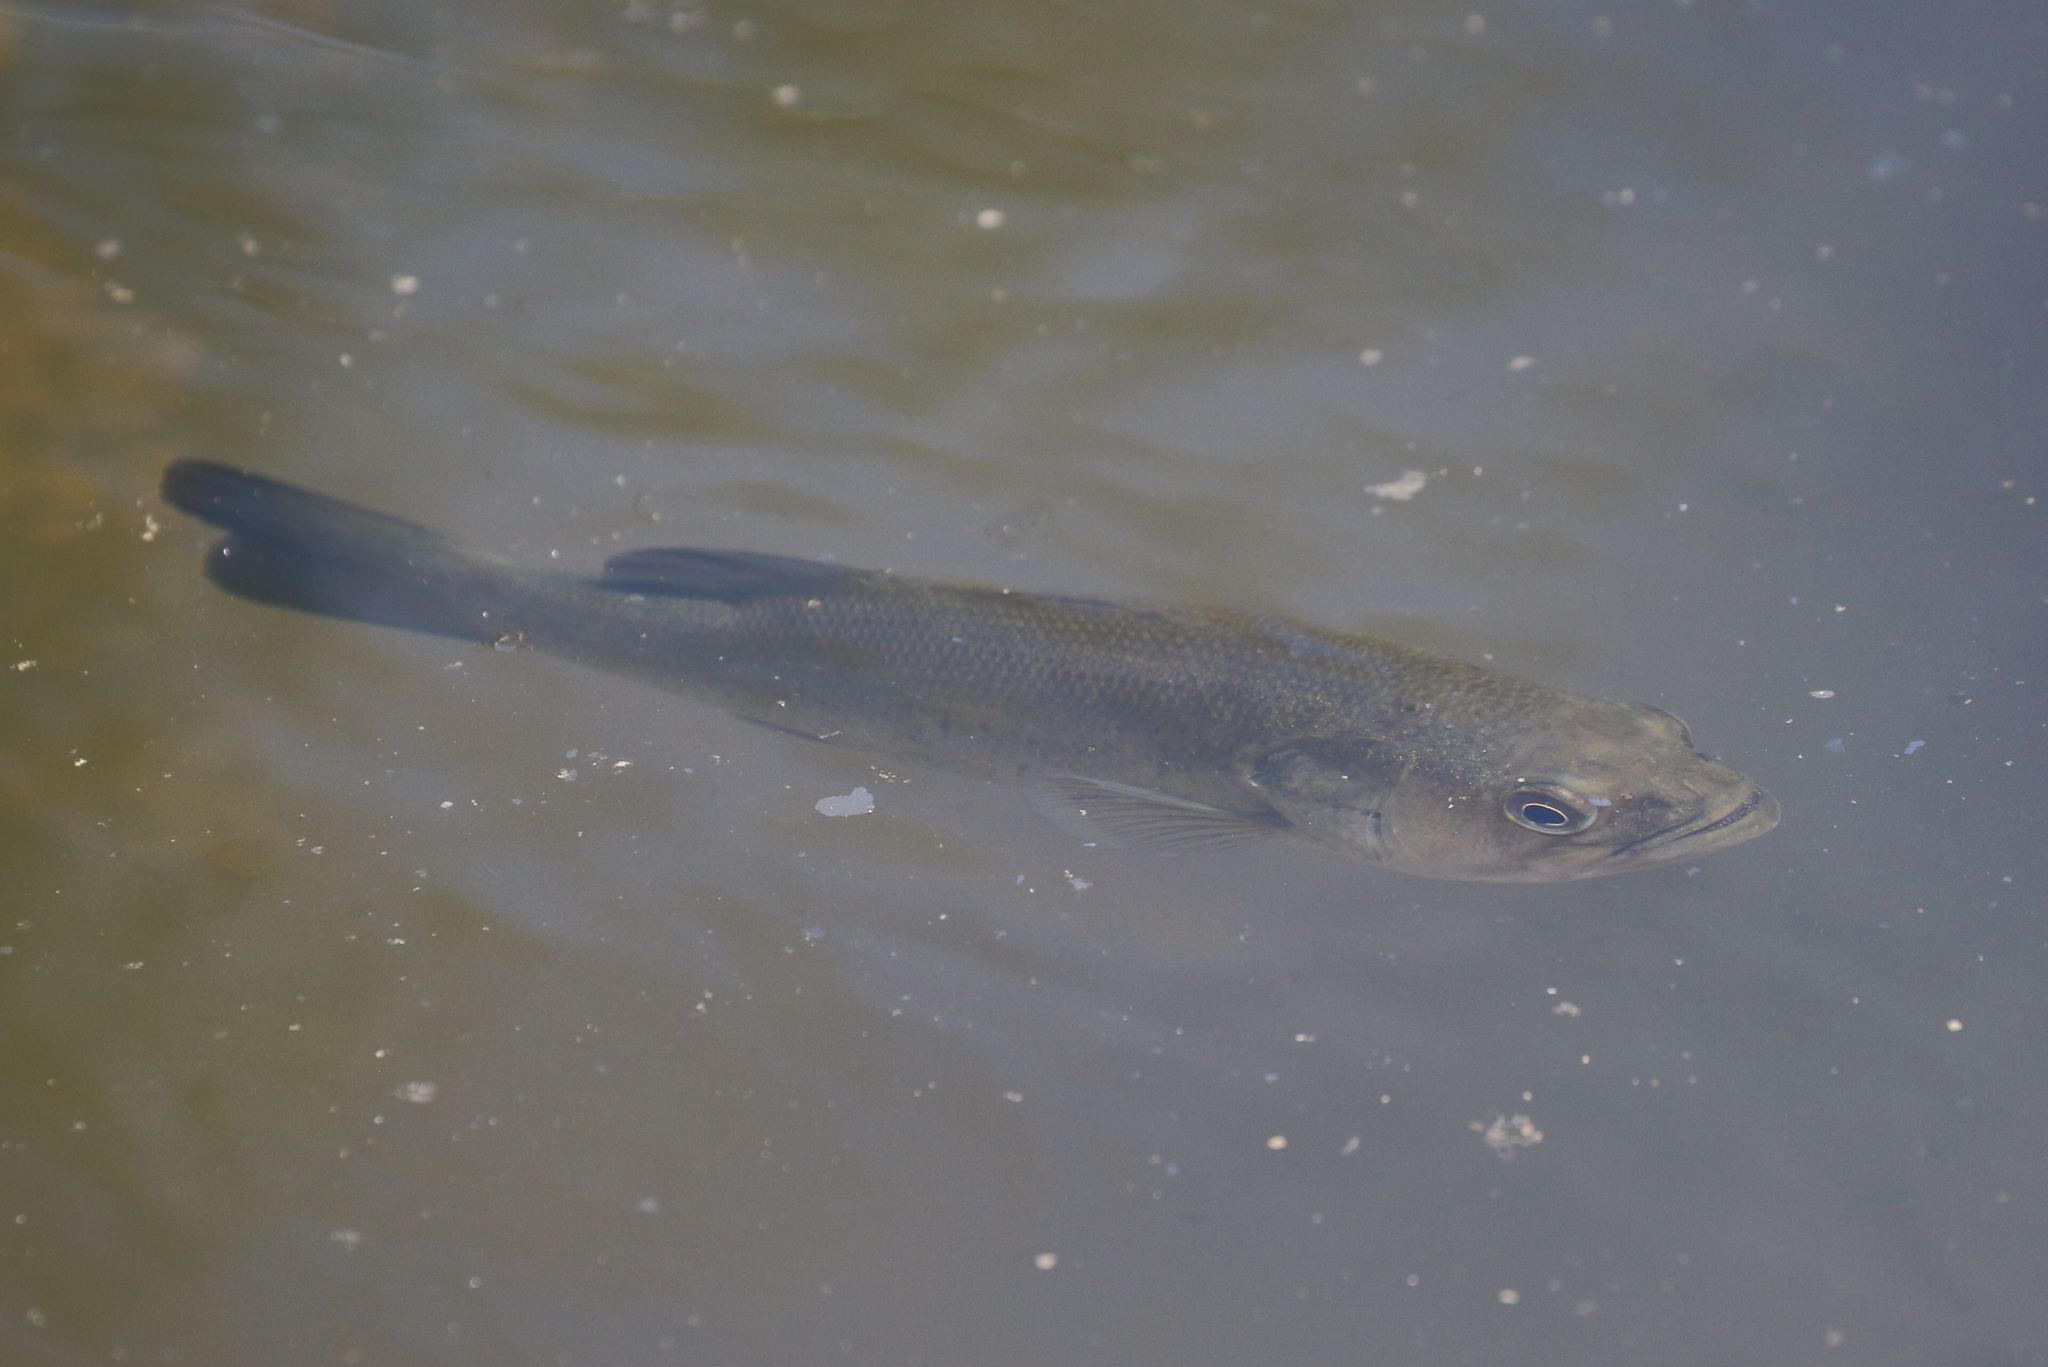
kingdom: Animalia
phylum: Chordata
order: Perciformes
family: Centrarchidae
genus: Micropterus
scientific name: Micropterus
